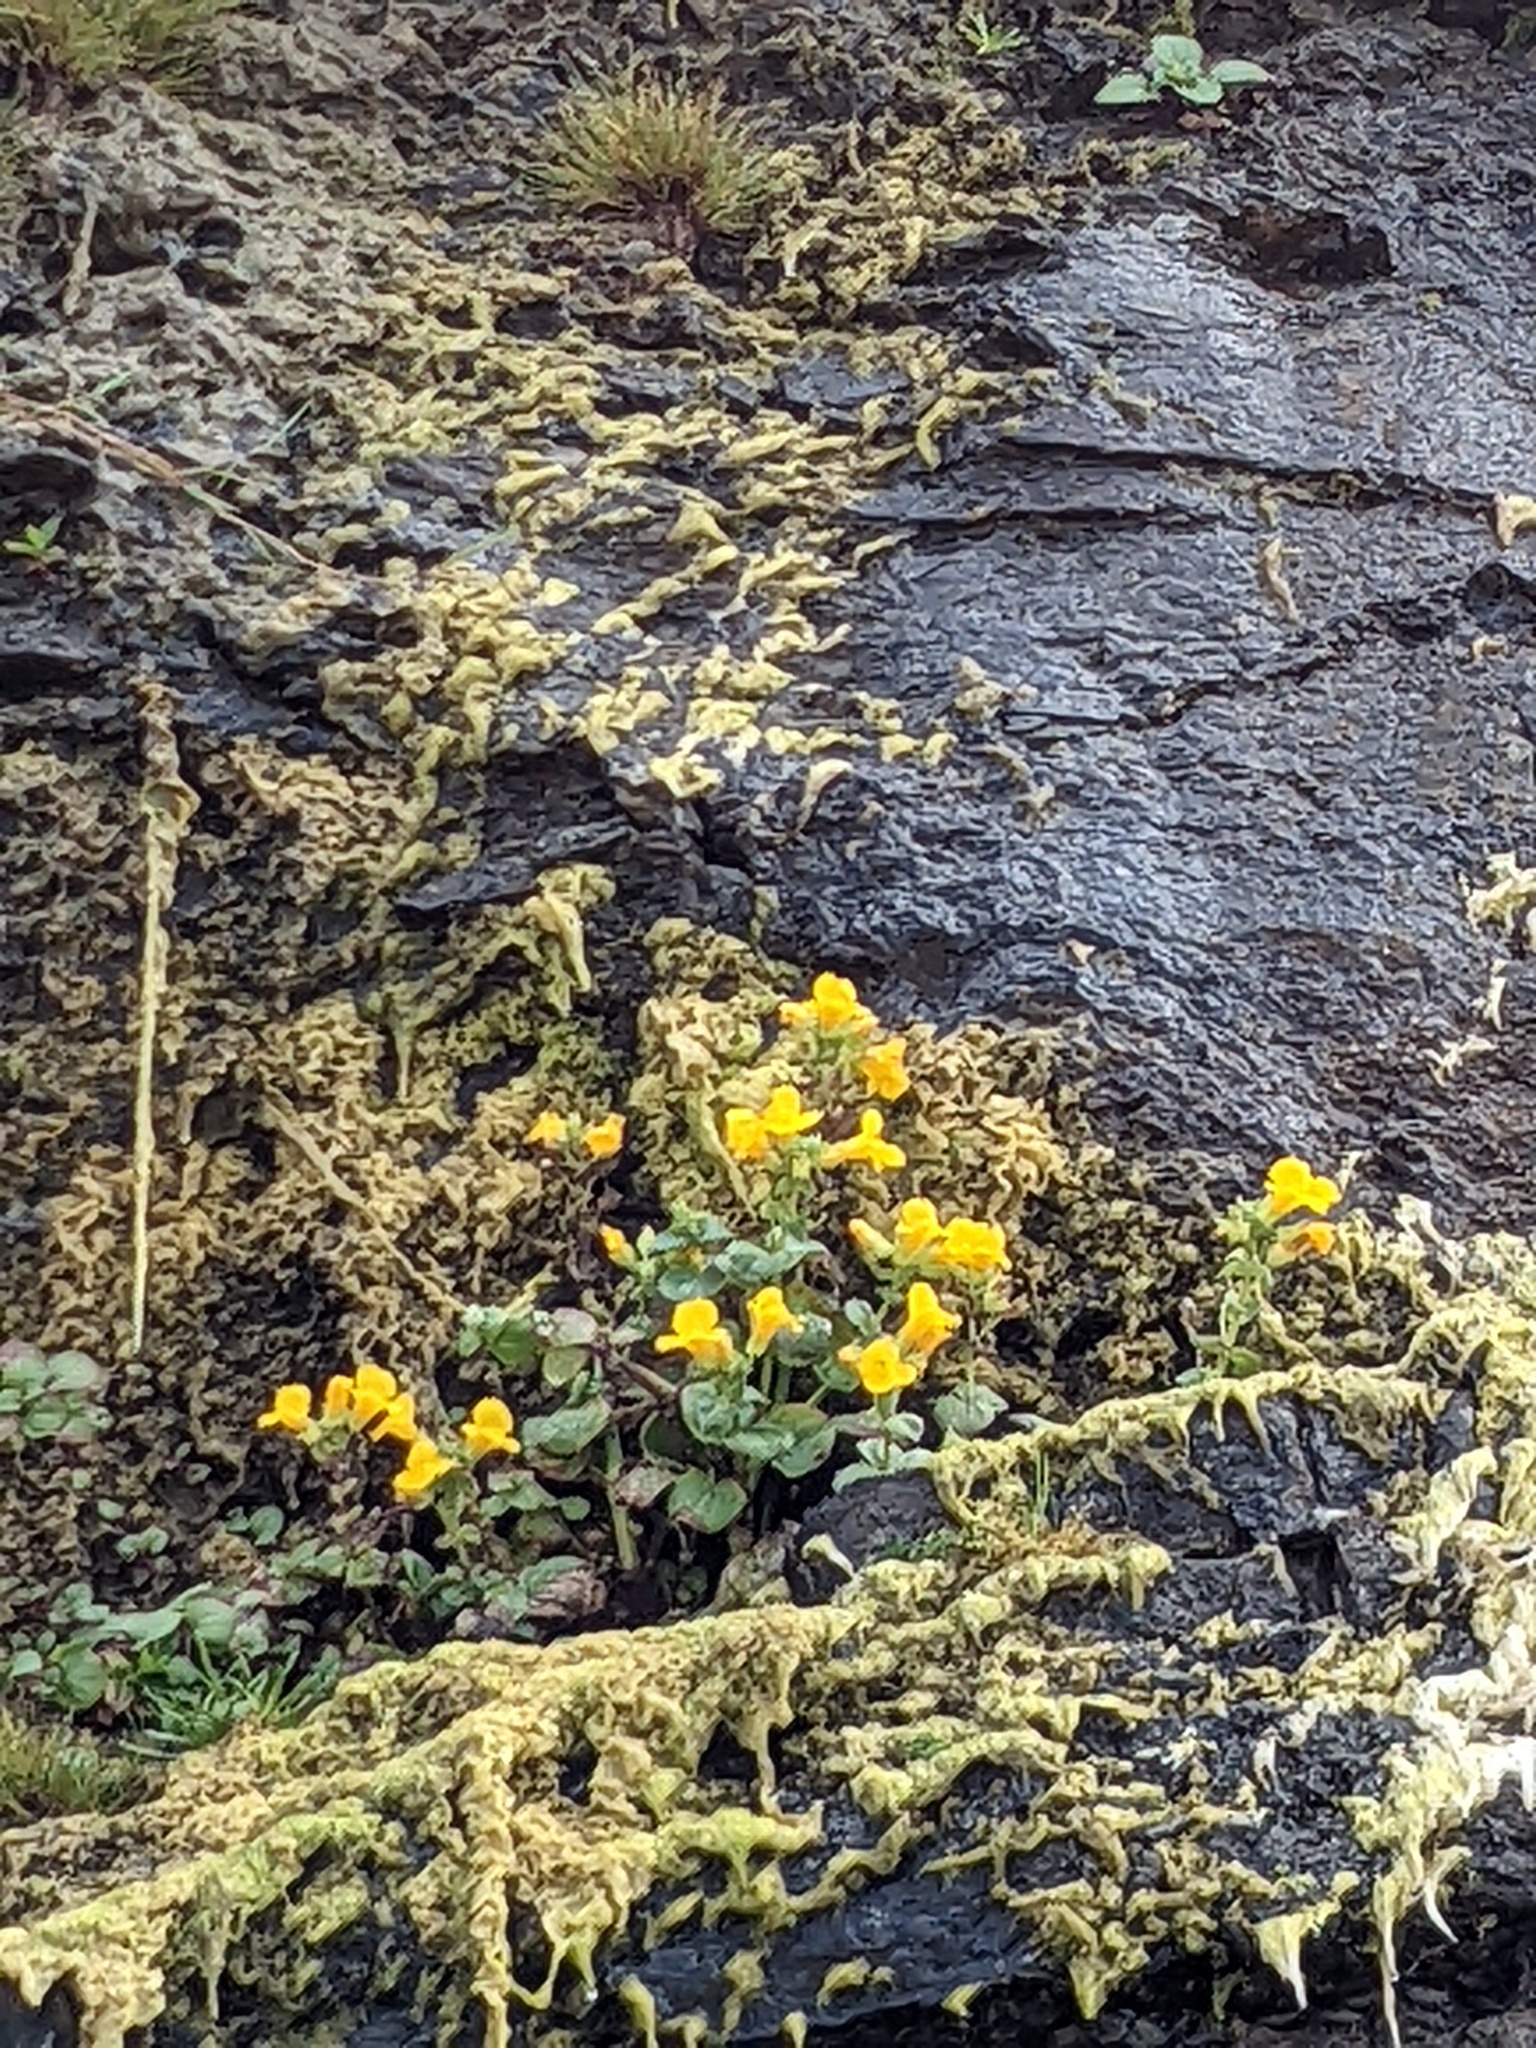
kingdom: Plantae
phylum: Tracheophyta
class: Magnoliopsida
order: Lamiales
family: Phrymaceae
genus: Erythranthe
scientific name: Erythranthe grandis
